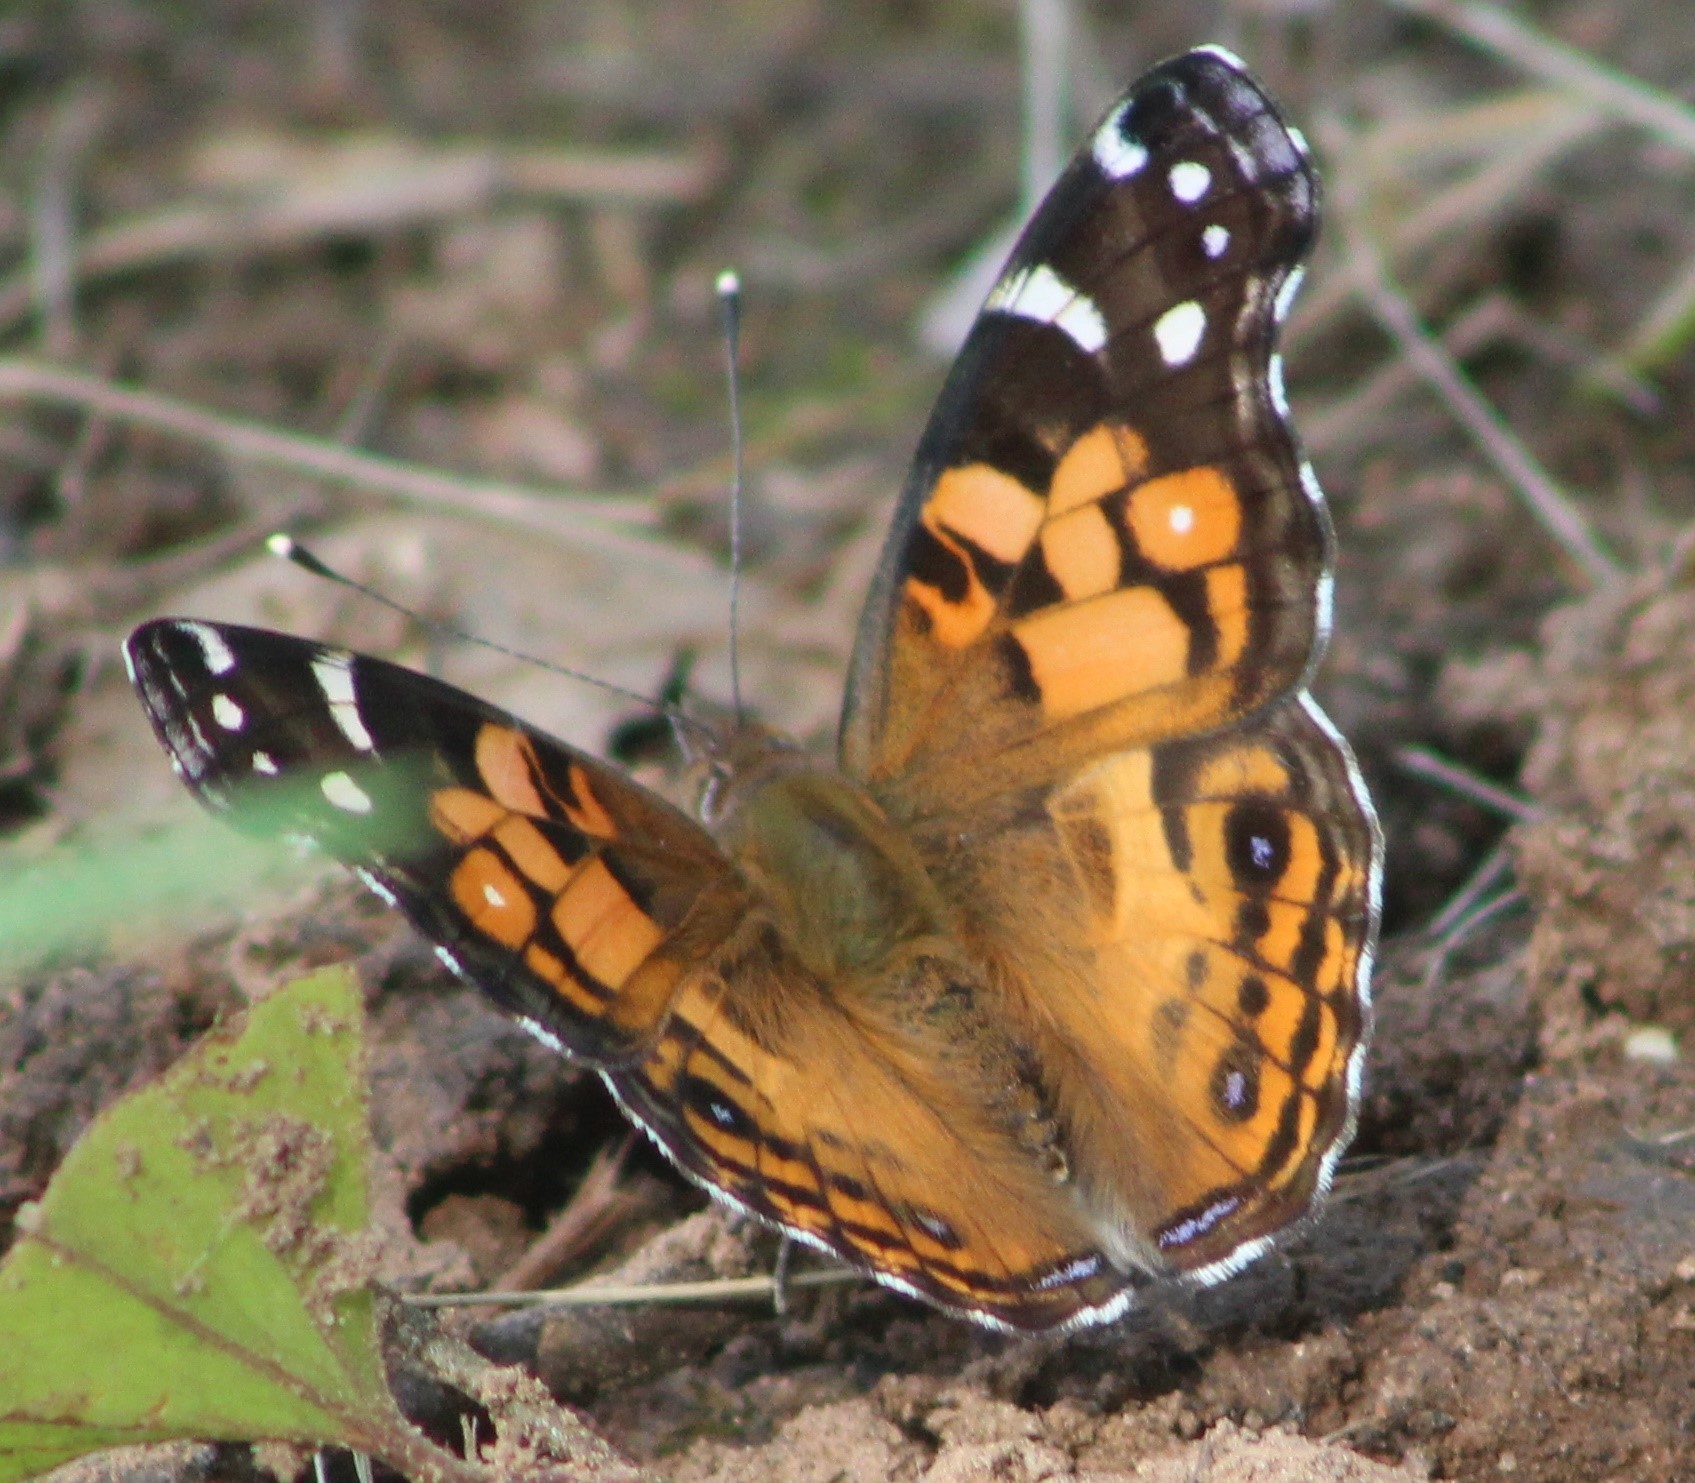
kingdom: Animalia
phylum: Arthropoda
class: Insecta
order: Lepidoptera
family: Nymphalidae
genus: Vanessa
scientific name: Vanessa virginiensis
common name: American lady
